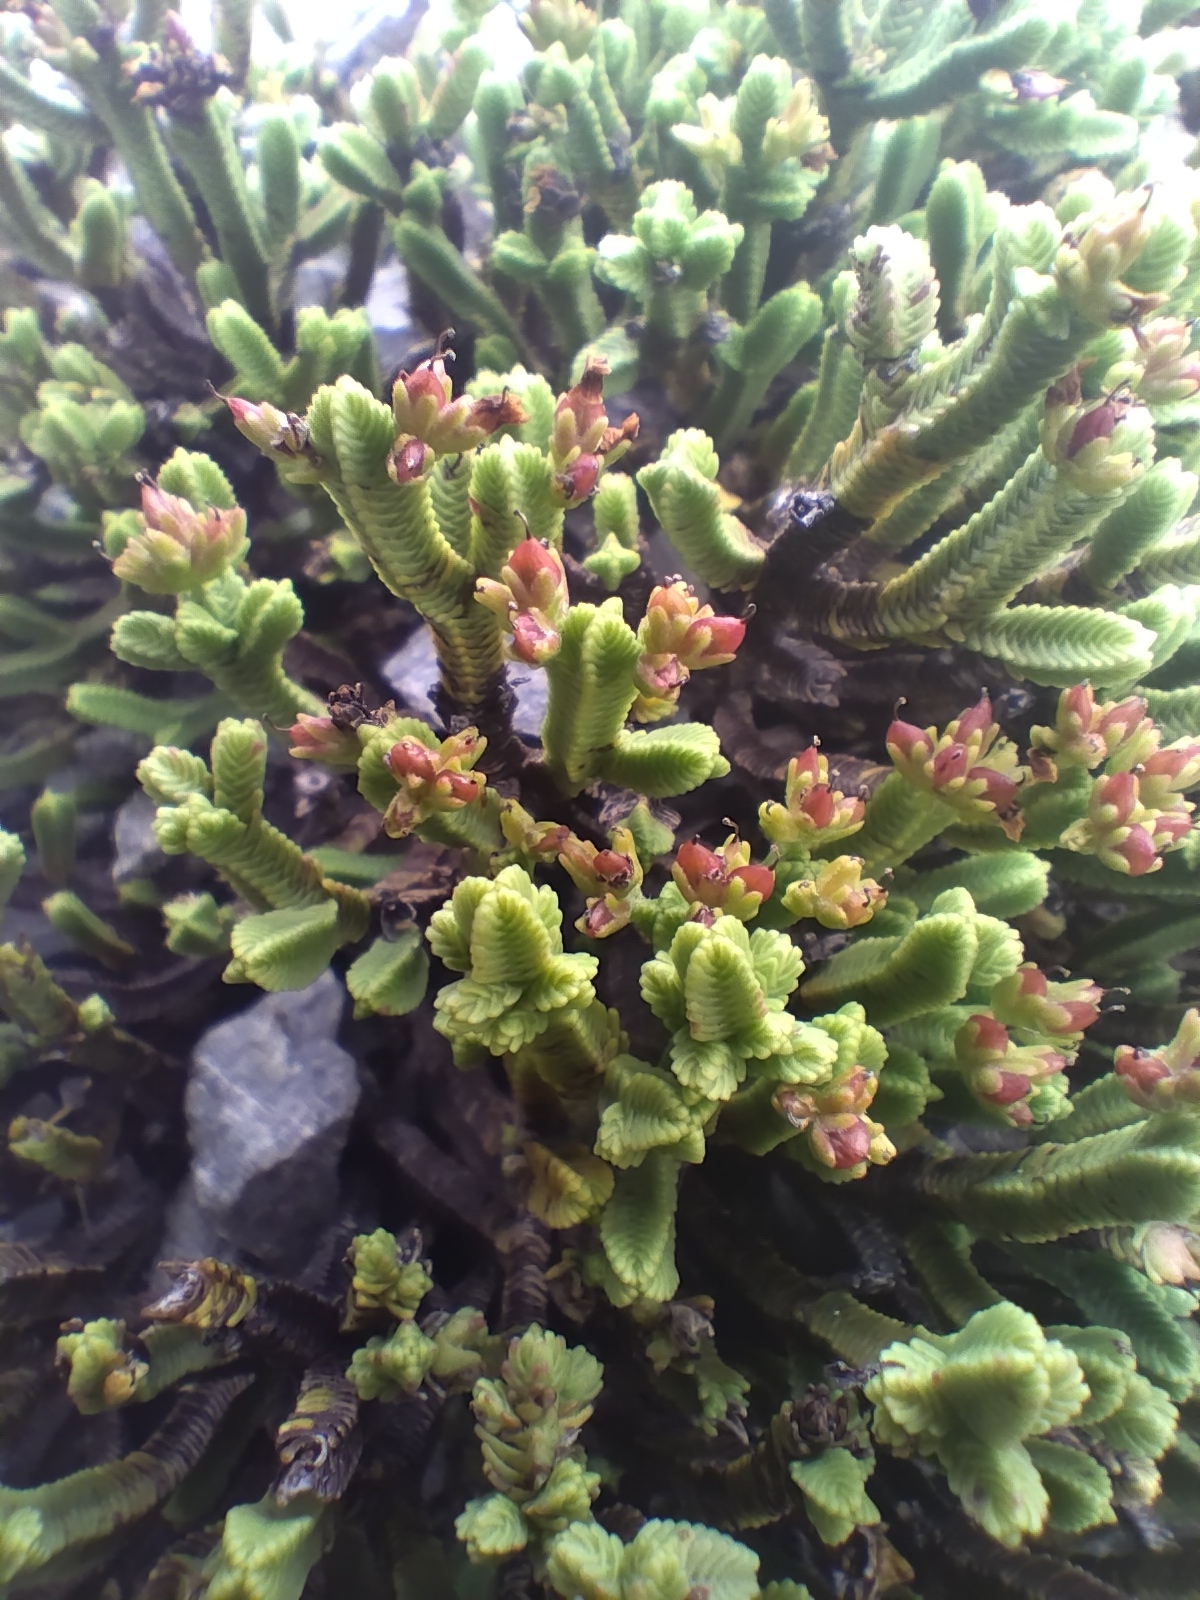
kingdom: Plantae
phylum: Tracheophyta
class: Magnoliopsida
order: Lamiales
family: Plantaginaceae
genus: Veronica
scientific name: Veronica tetrasticha
